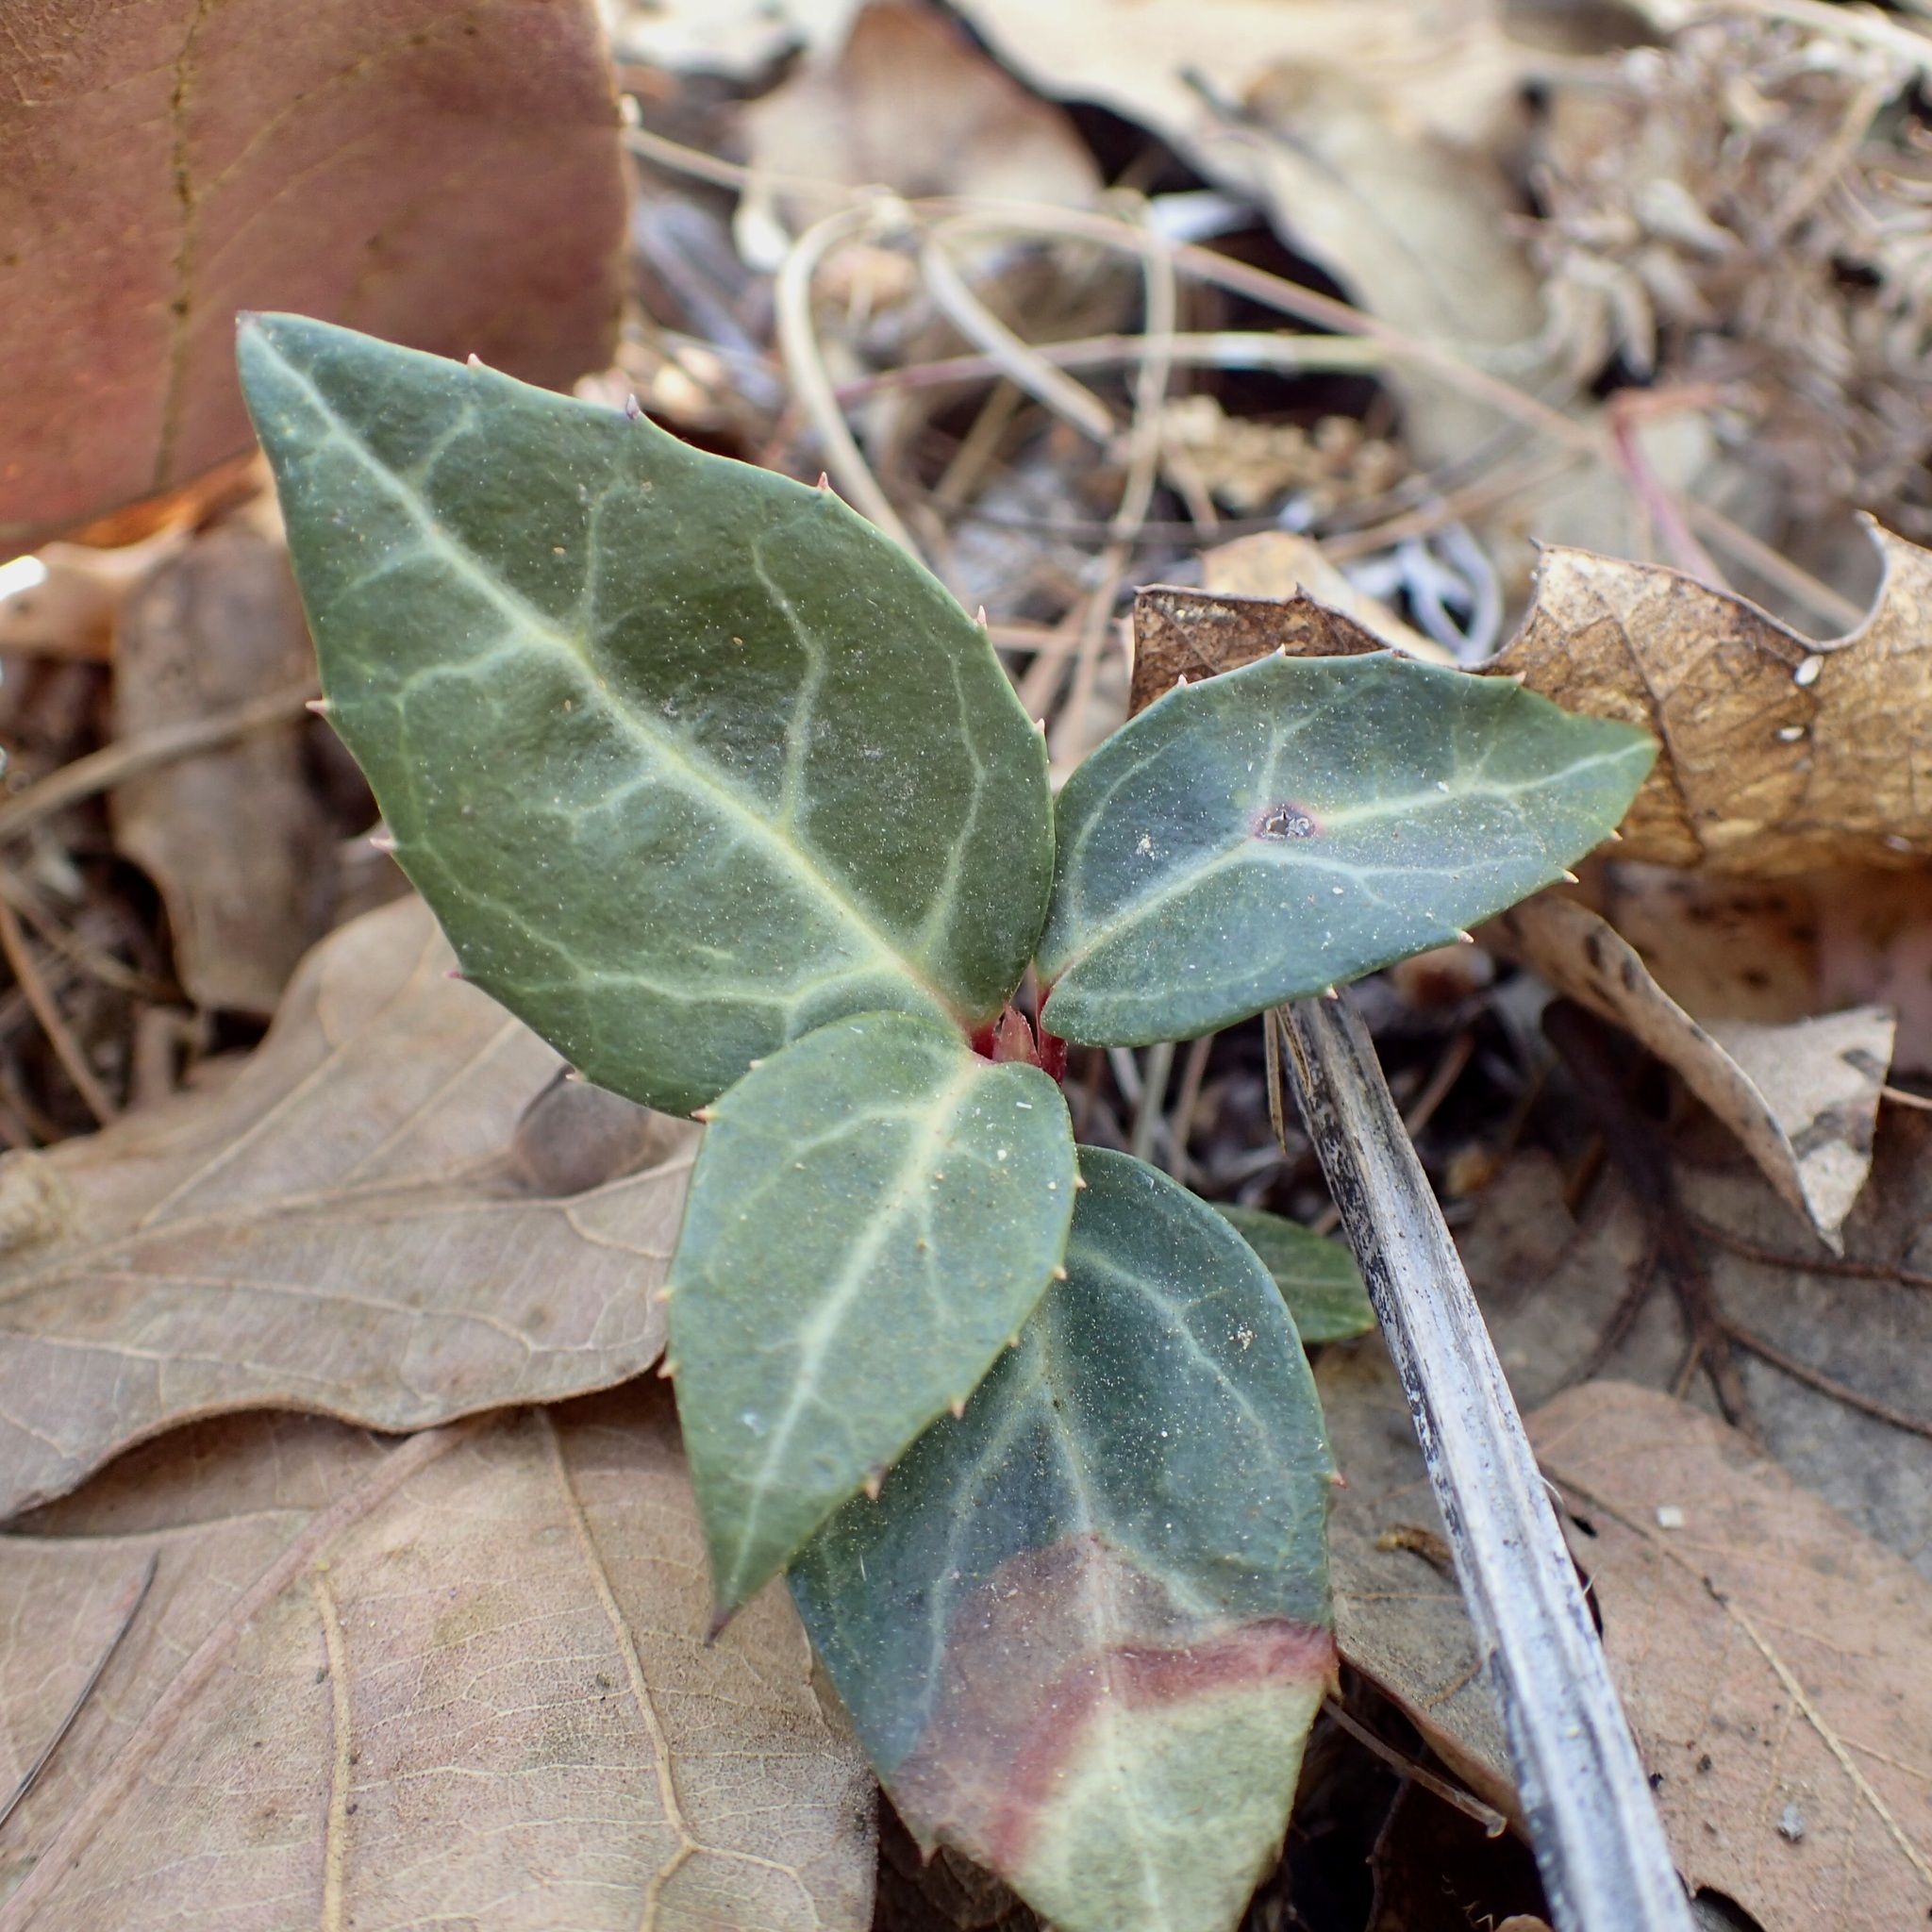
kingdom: Plantae
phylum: Tracheophyta
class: Magnoliopsida
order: Ericales
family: Ericaceae
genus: Chimaphila
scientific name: Chimaphila maculata
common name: Spotted pipsissewa
